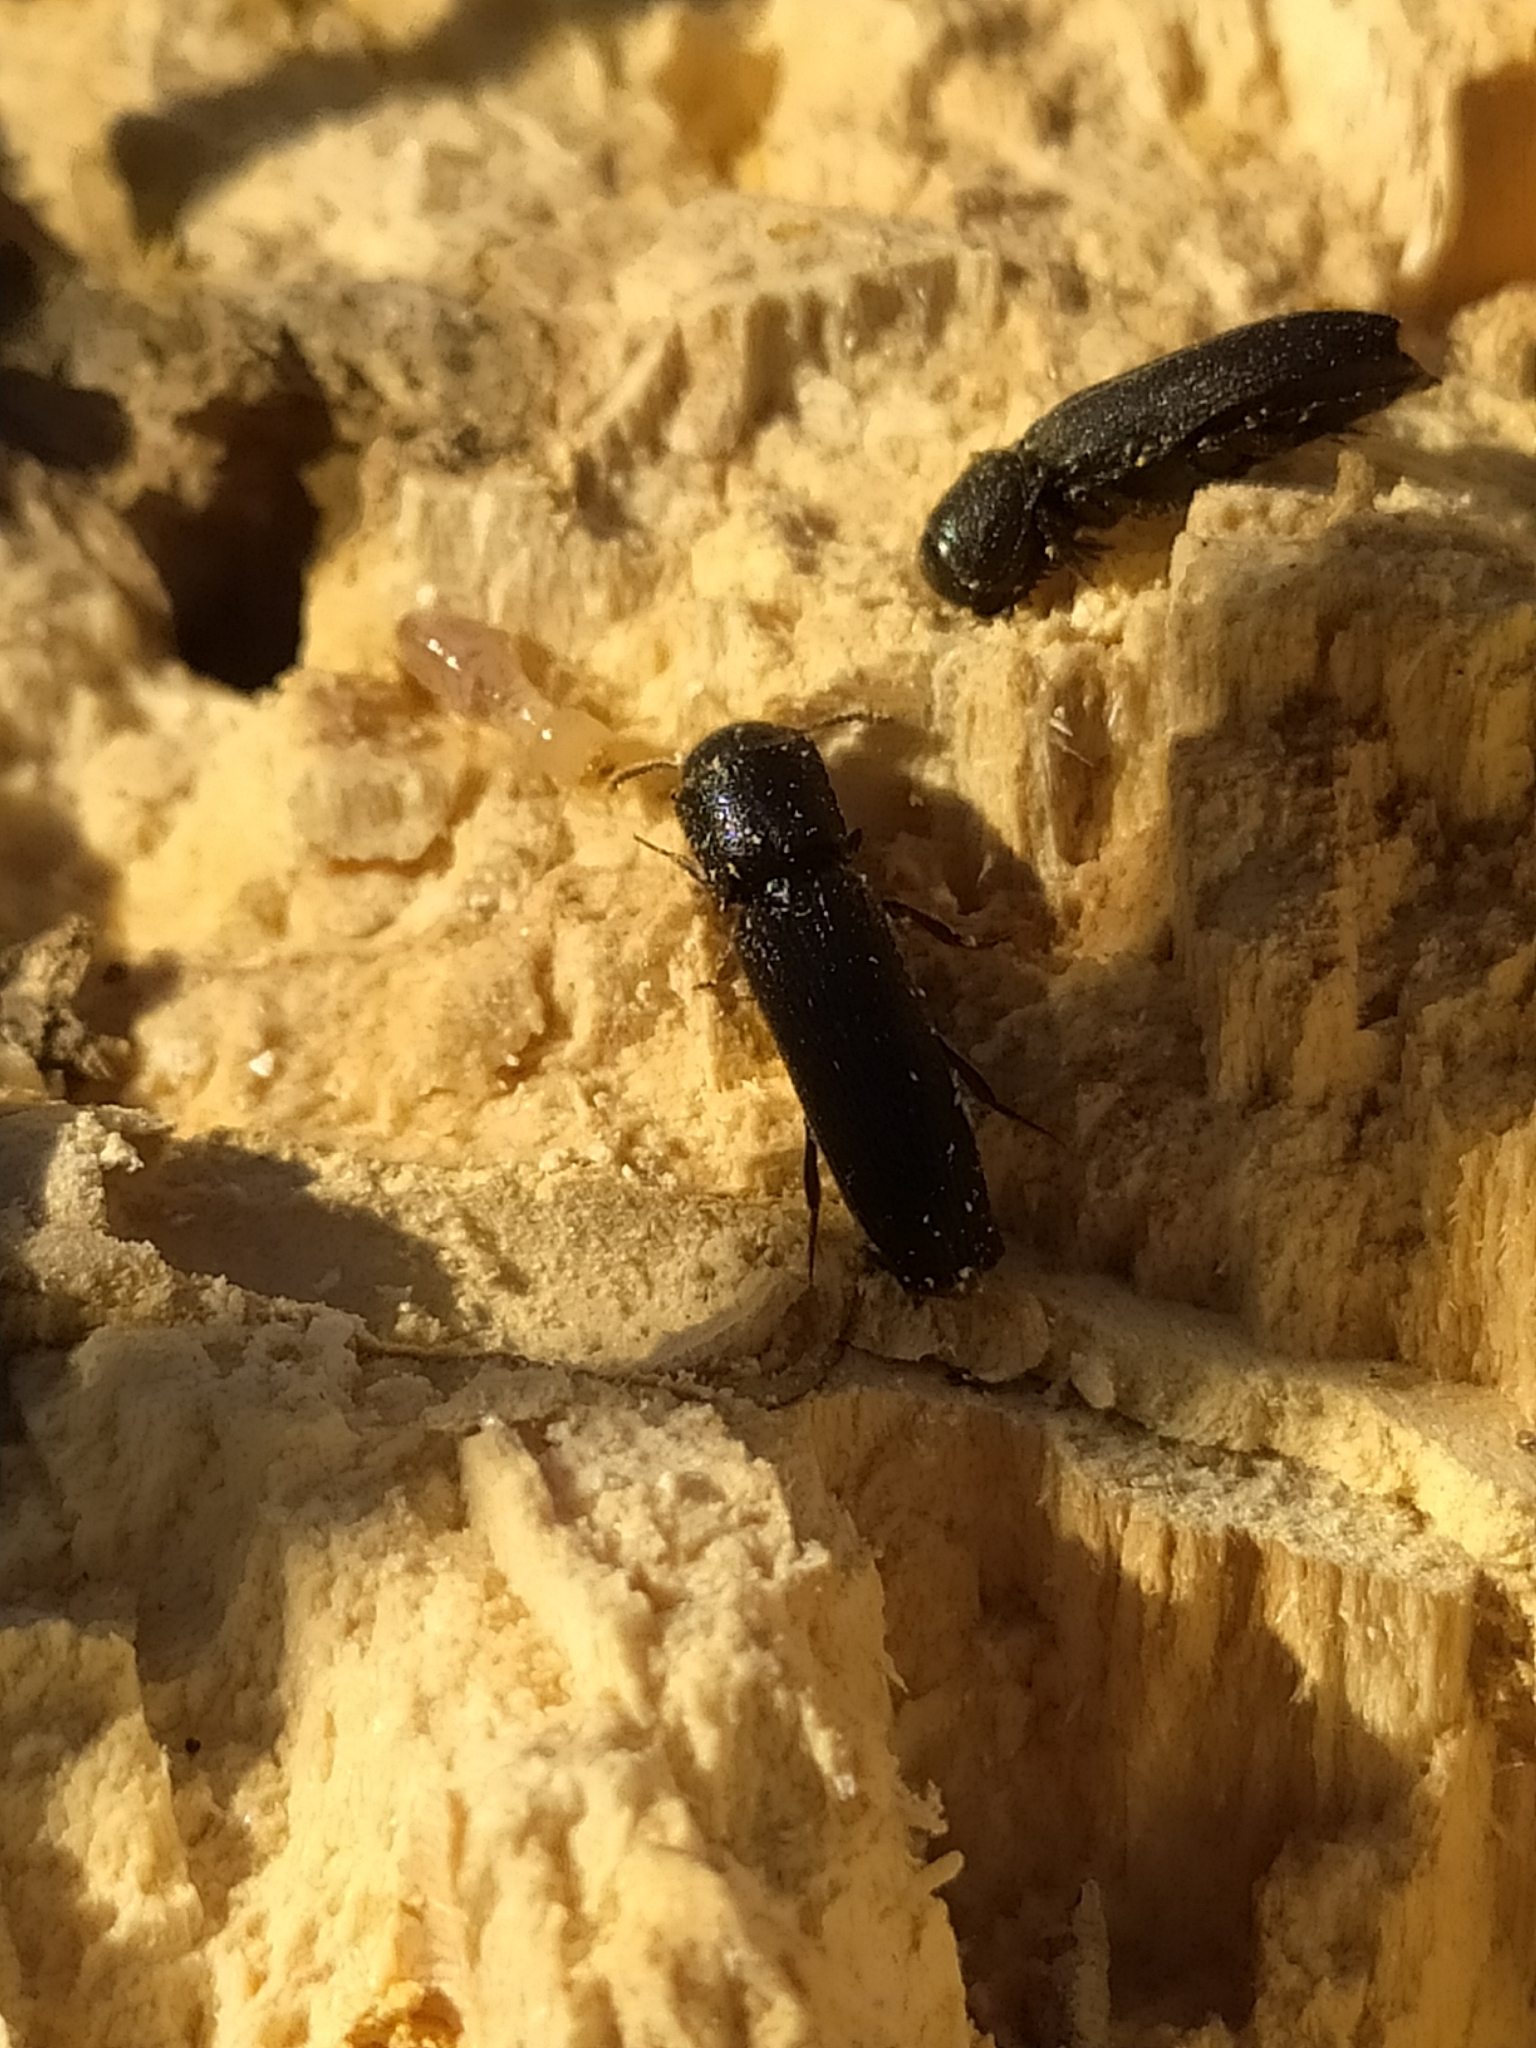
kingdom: Animalia
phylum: Arthropoda
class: Insecta
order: Coleoptera
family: Eucnemidae
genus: Melasis
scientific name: Melasis buprestoides
